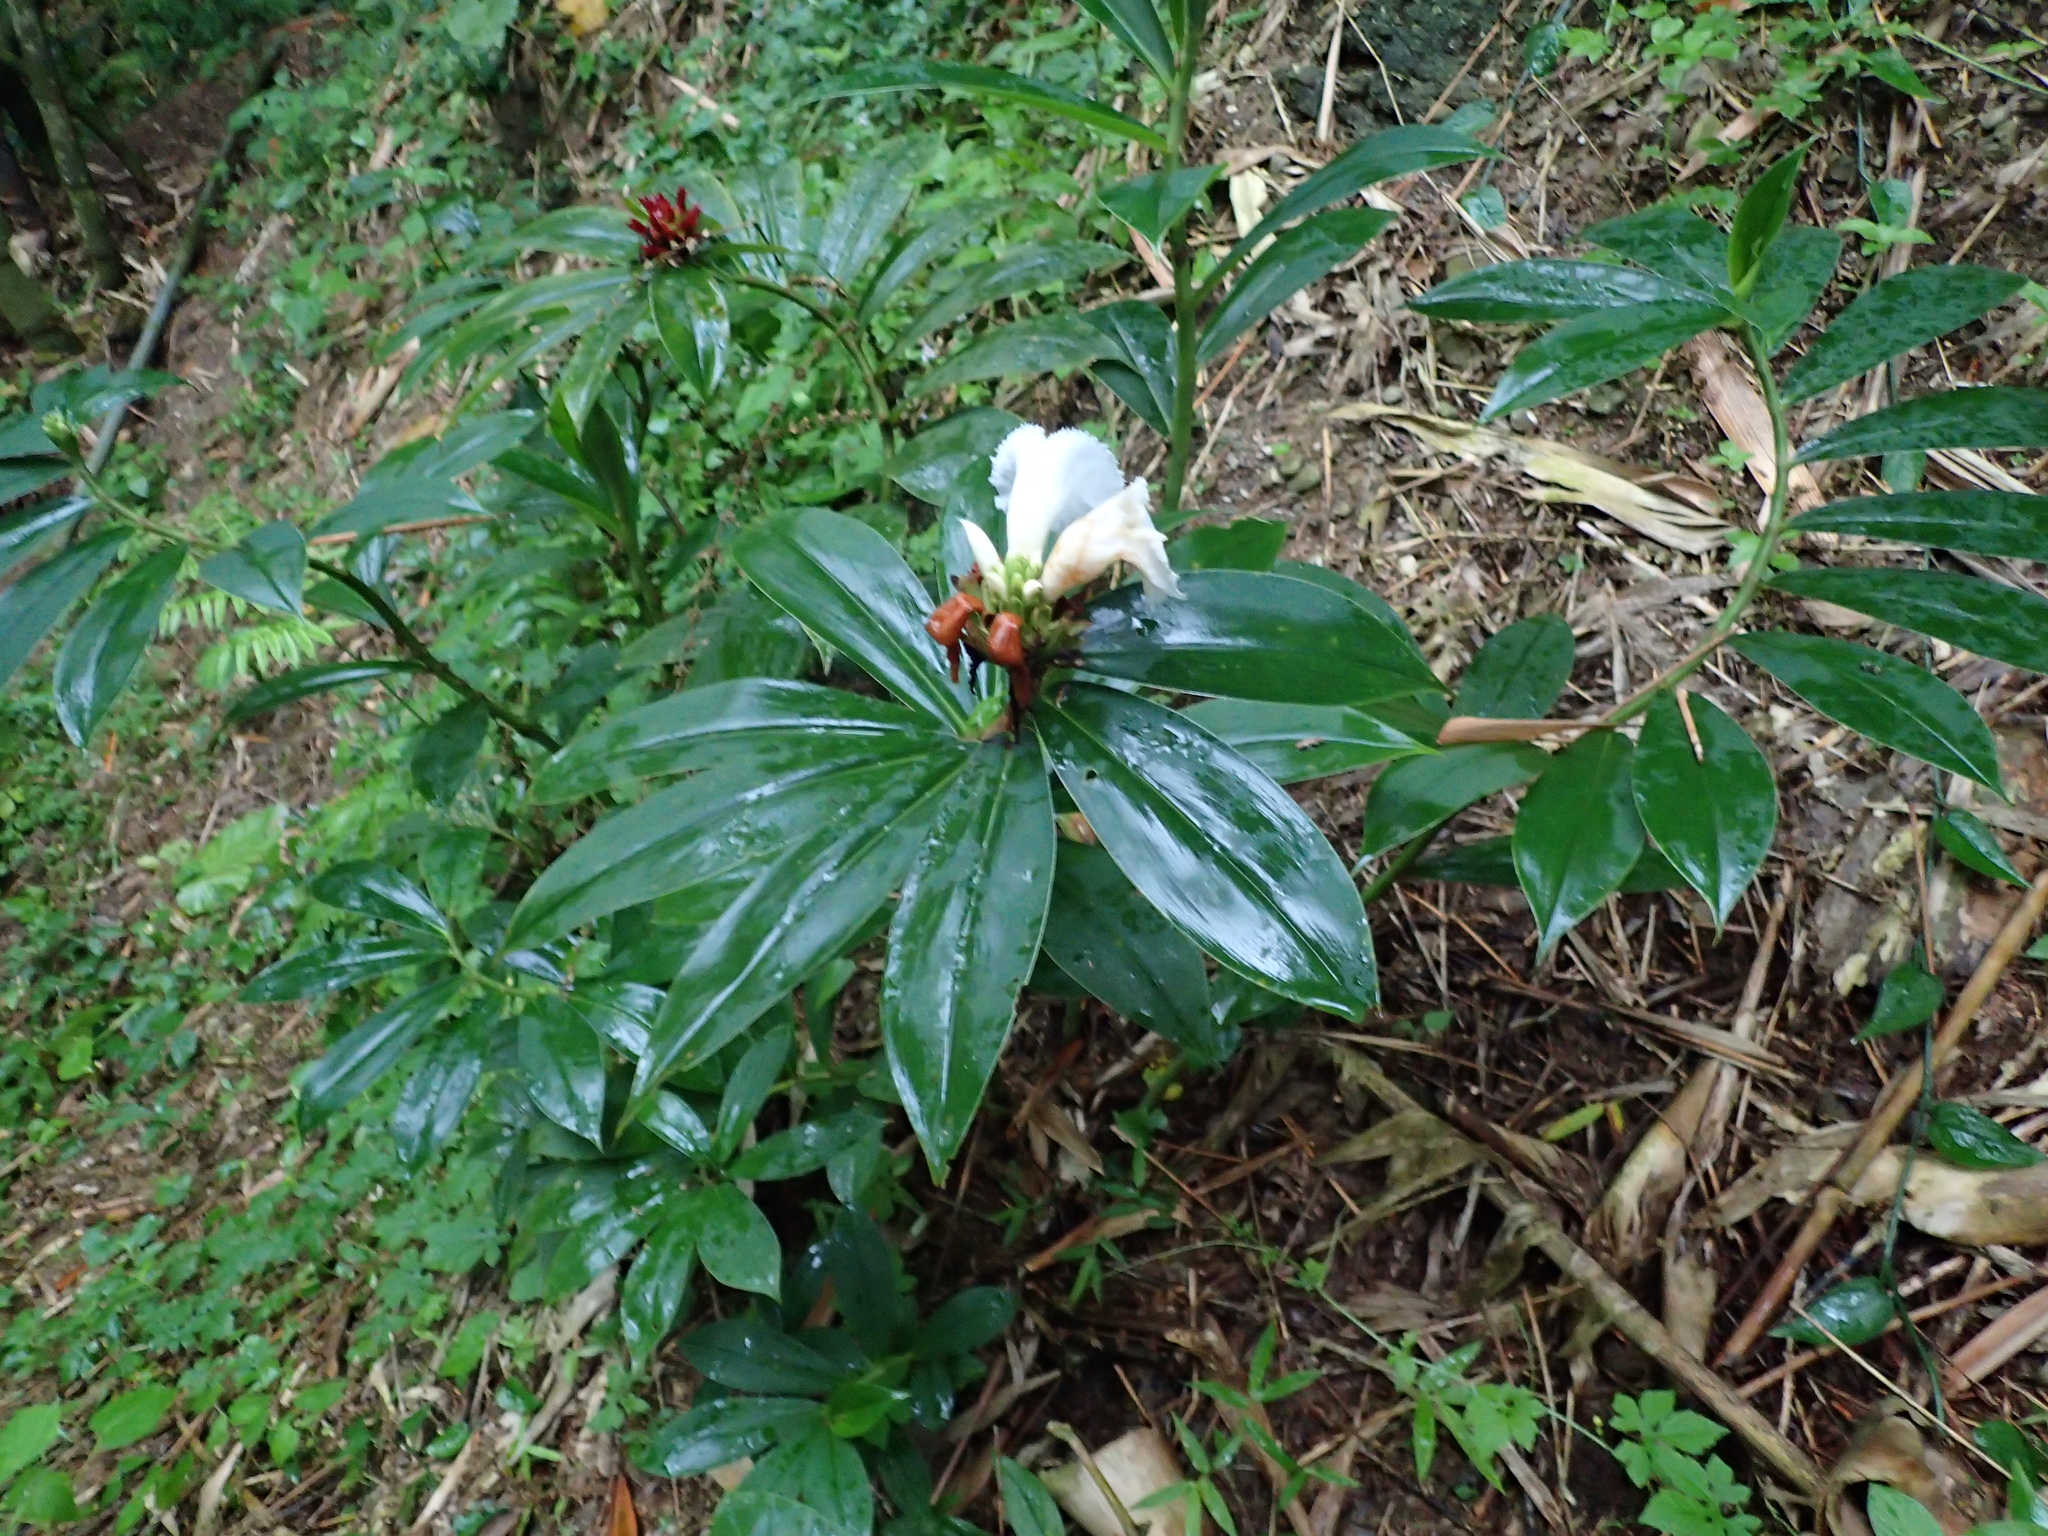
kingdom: Plantae
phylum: Tracheophyta
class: Liliopsida
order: Zingiberales
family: Costaceae
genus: Hellenia
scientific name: Hellenia speciosa
